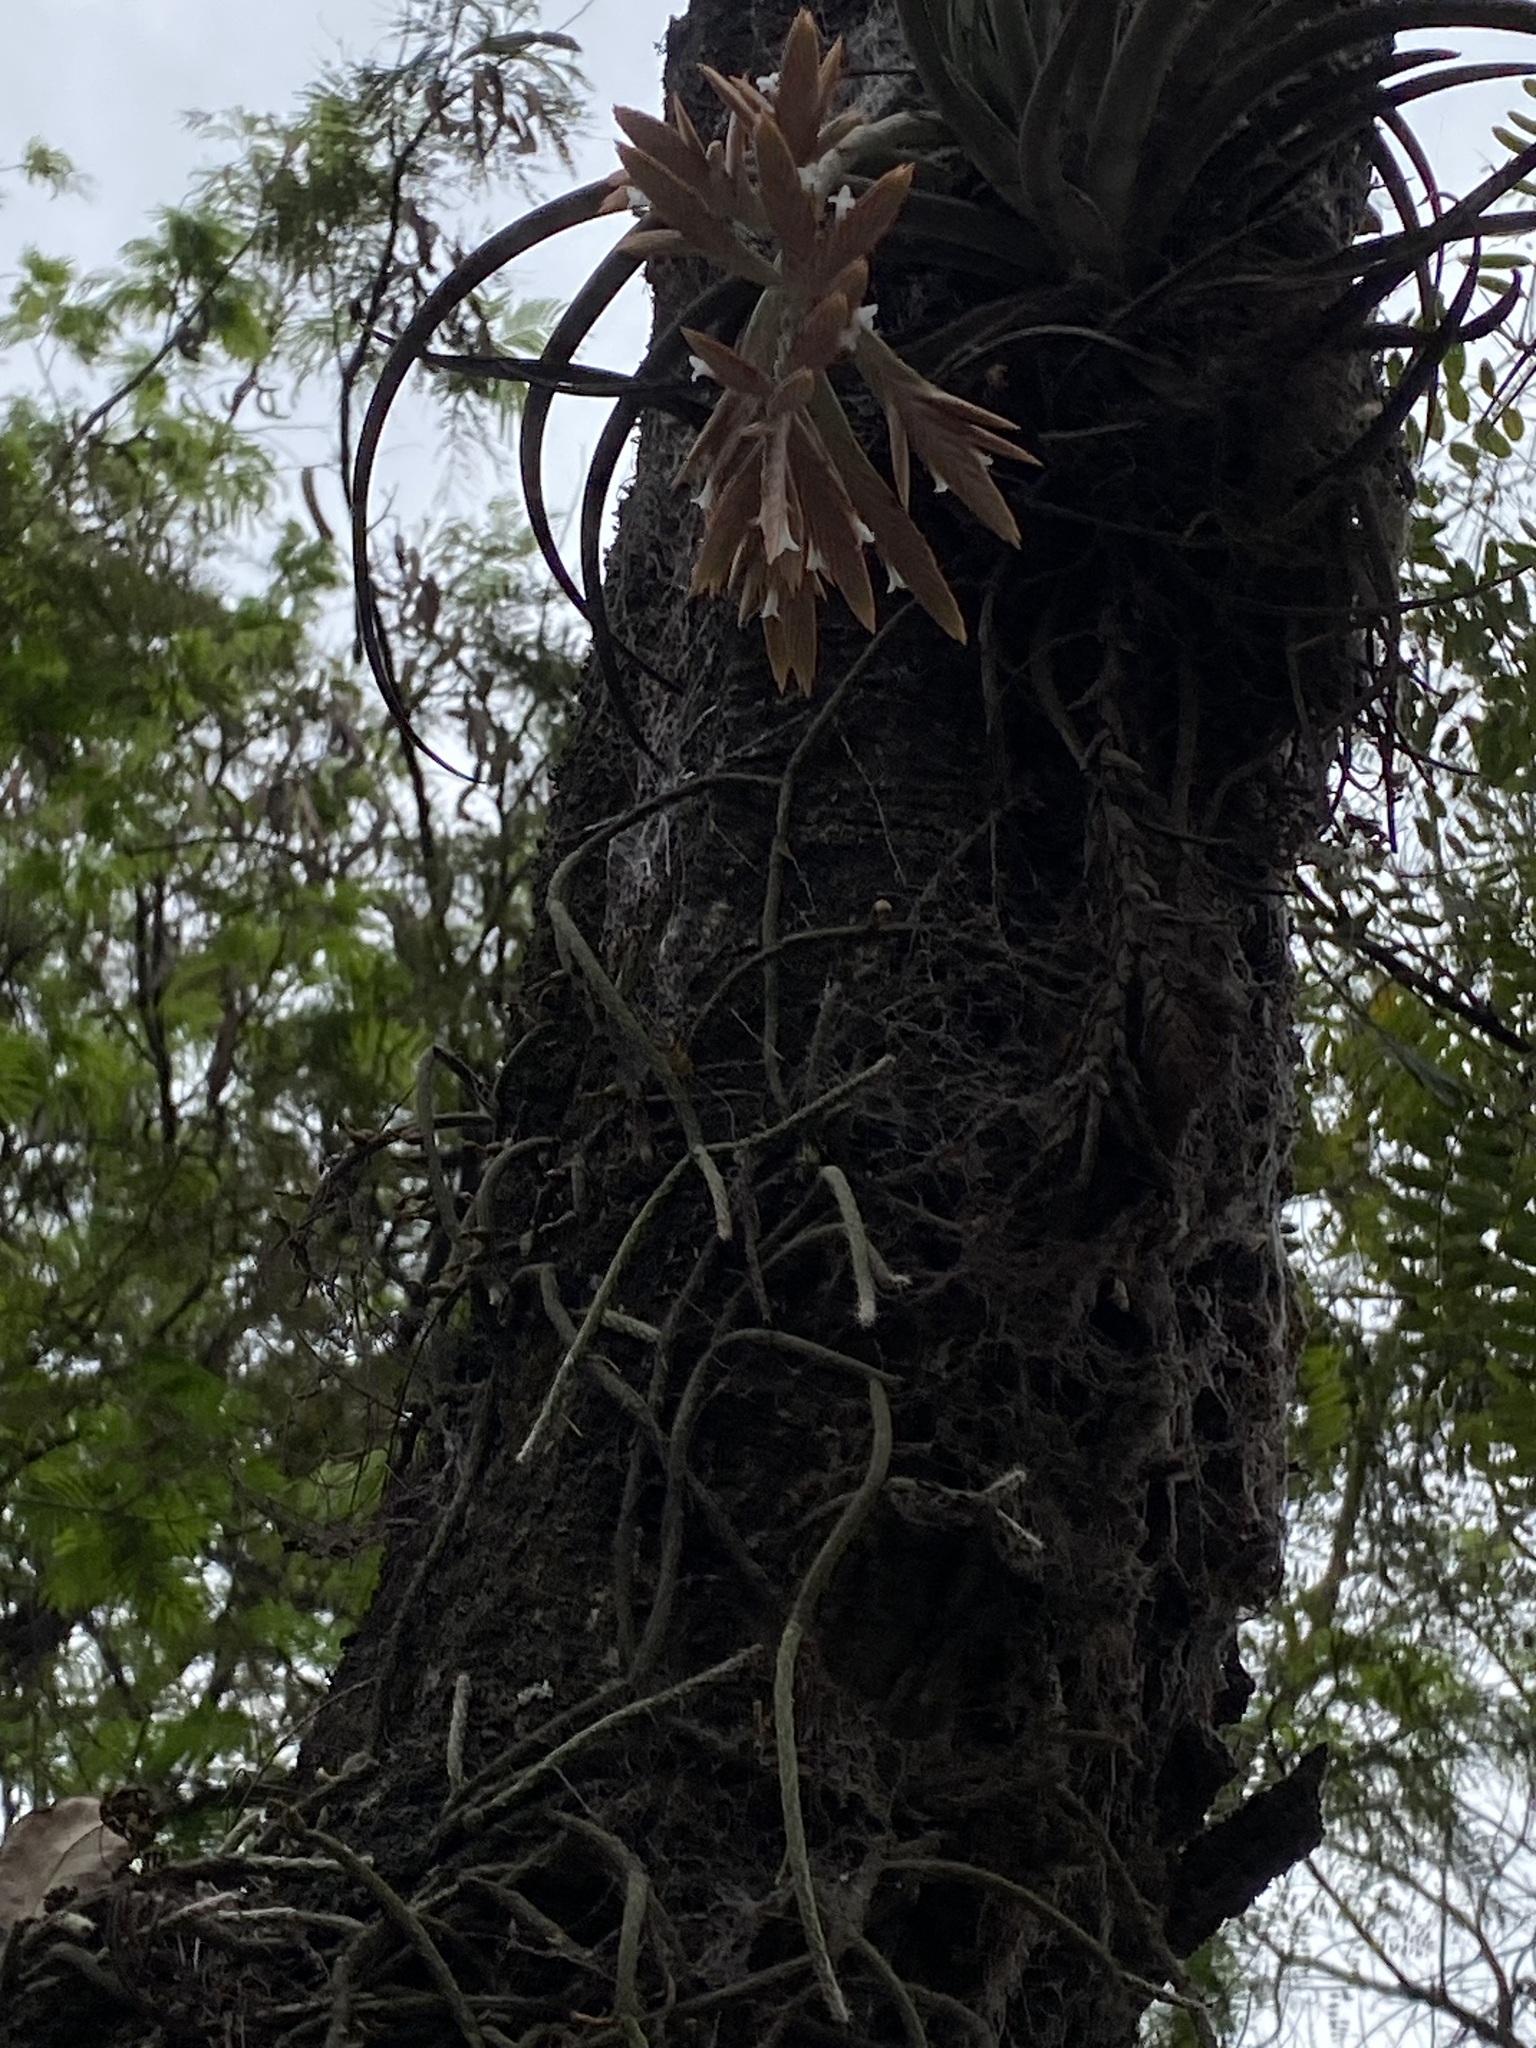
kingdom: Plantae
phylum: Tracheophyta
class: Magnoliopsida
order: Caryophyllales
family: Cactaceae
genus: Lepismium
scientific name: Lepismium lumbricoides
